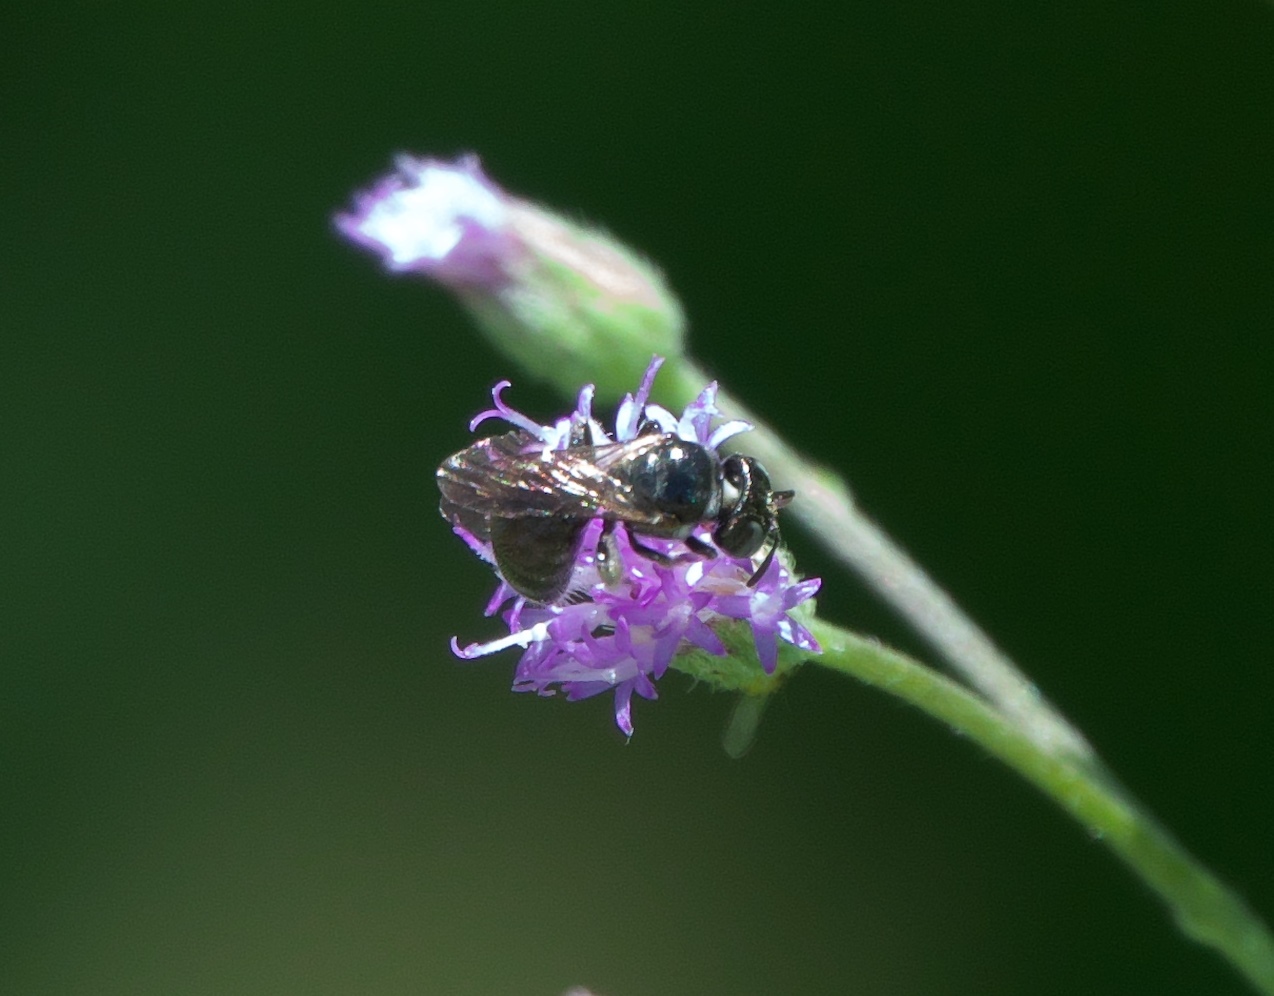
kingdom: Animalia
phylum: Arthropoda
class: Insecta
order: Hymenoptera
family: Apidae
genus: Ceratina
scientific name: Ceratina dentipes
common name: Small carpenter bee
